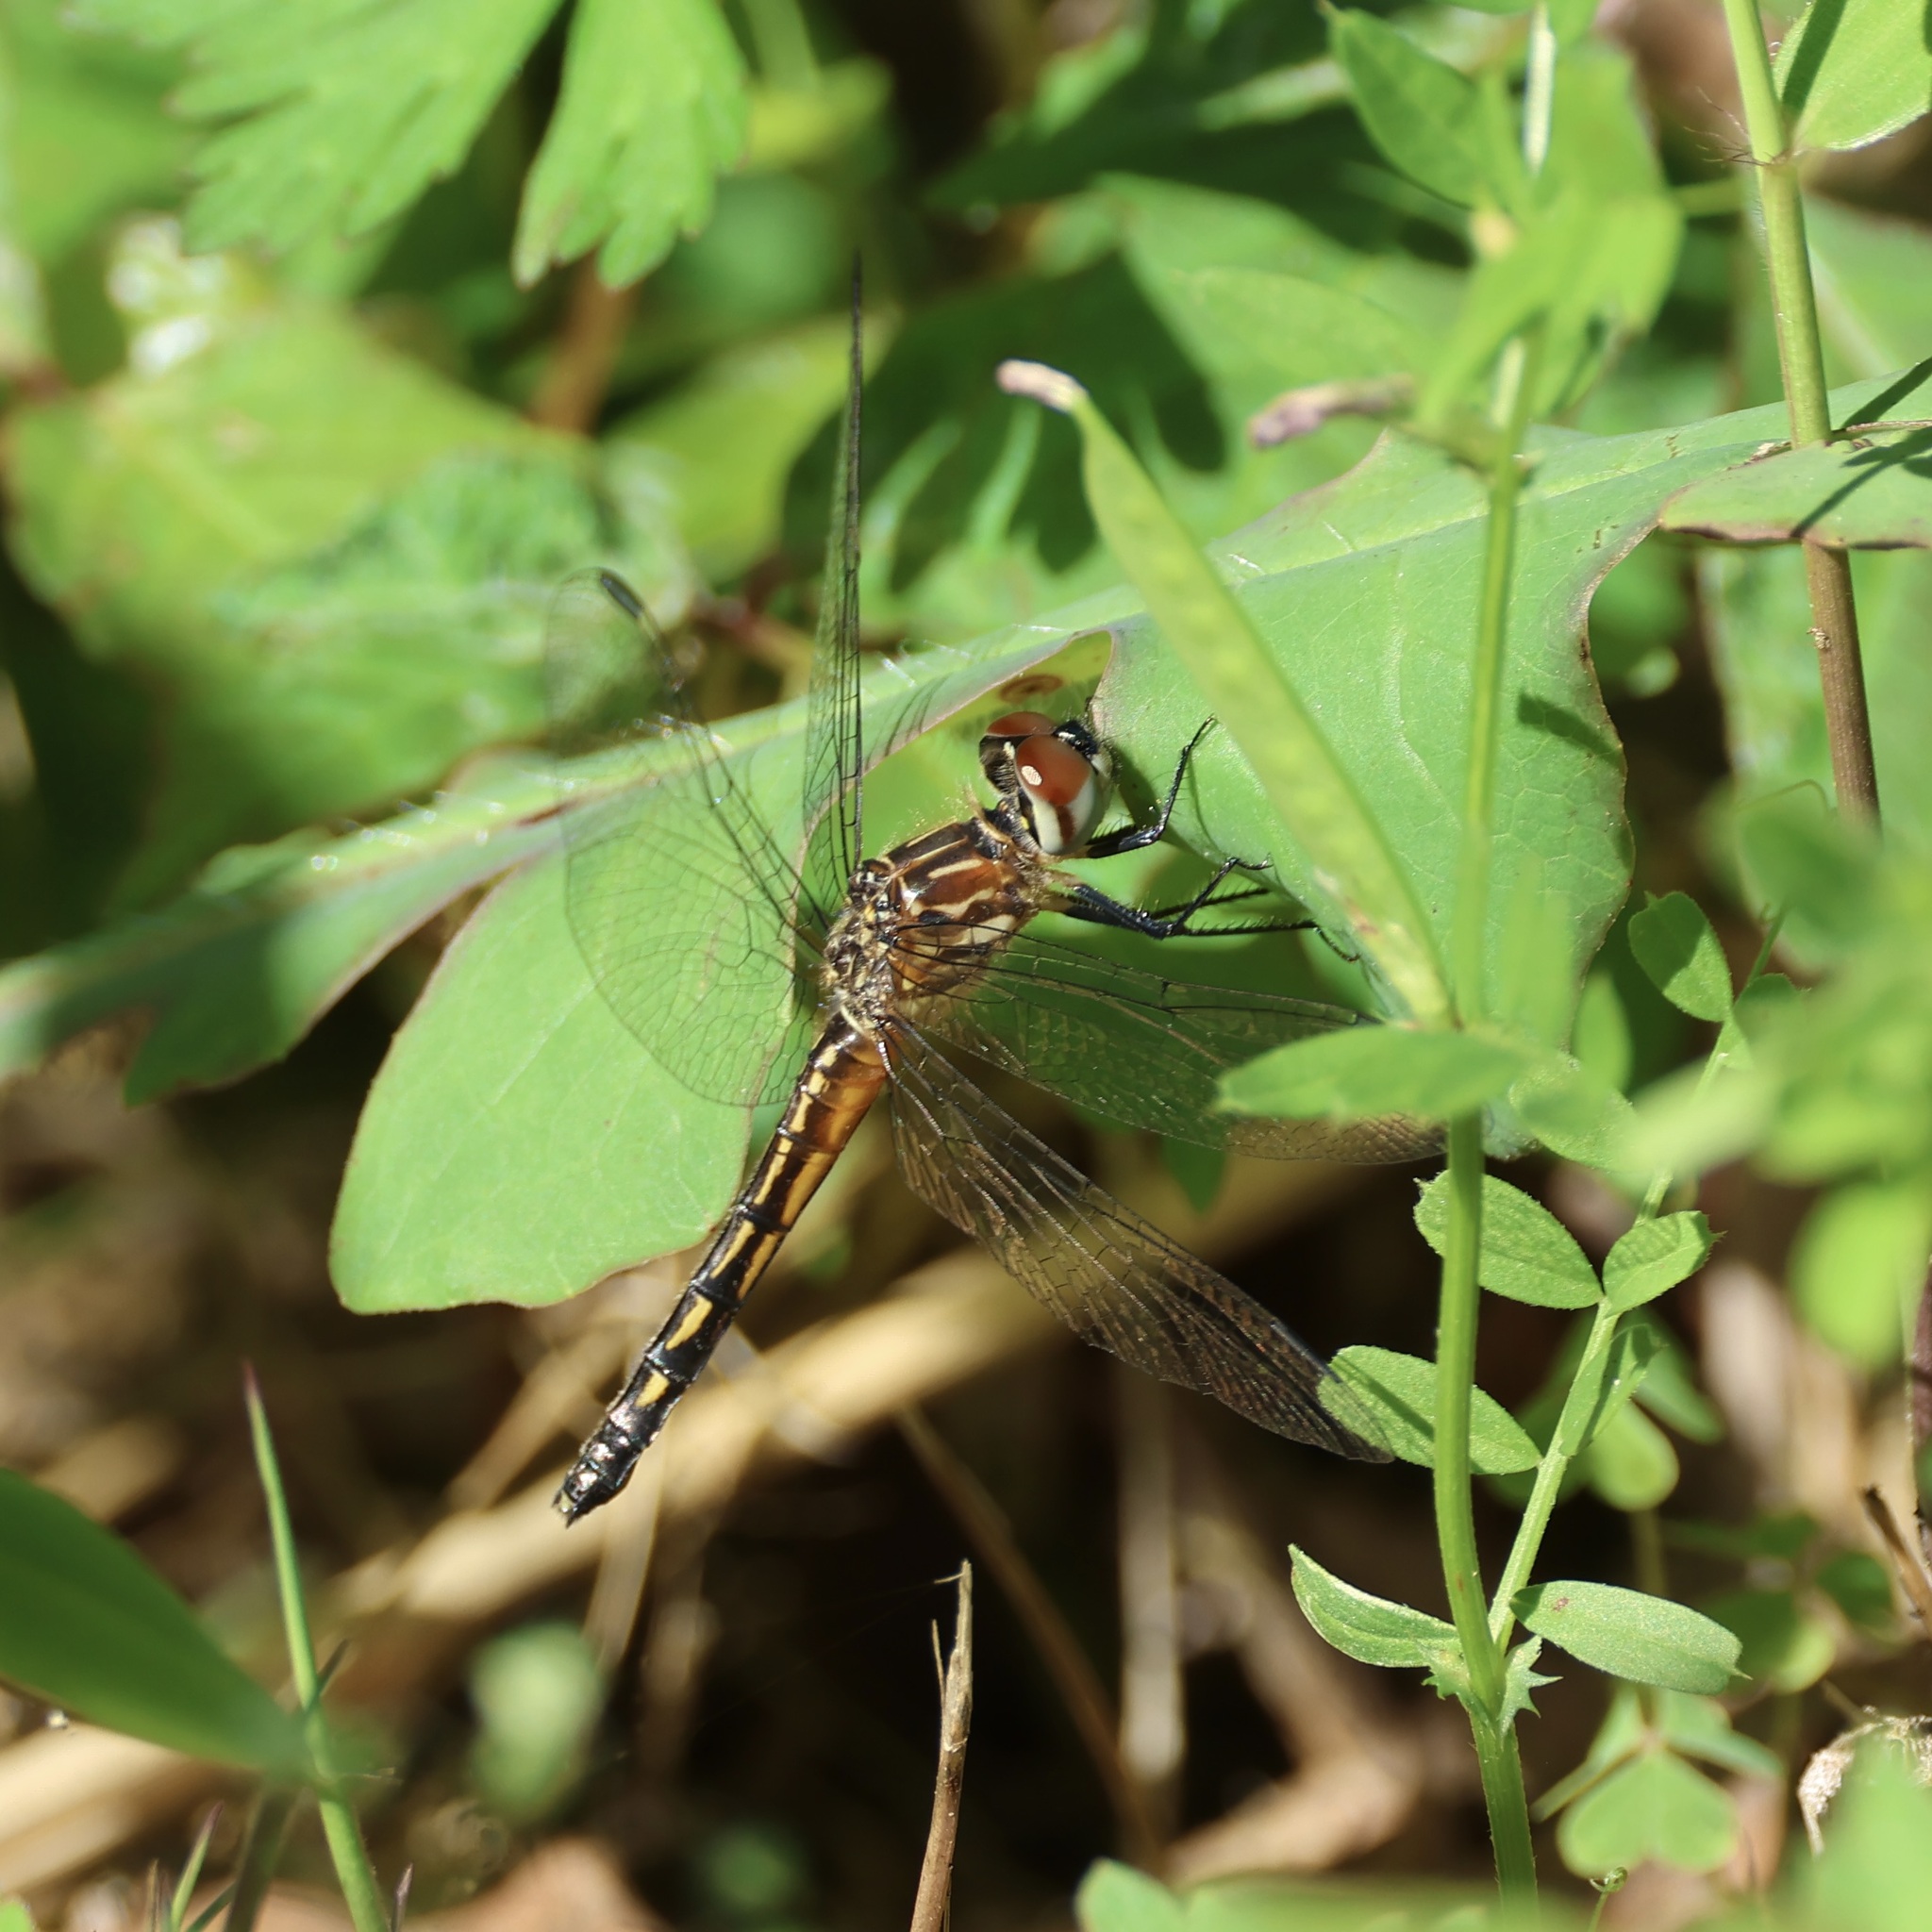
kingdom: Animalia
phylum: Arthropoda
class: Insecta
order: Odonata
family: Libellulidae
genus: Pachydiplax
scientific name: Pachydiplax longipennis
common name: Blue dasher
